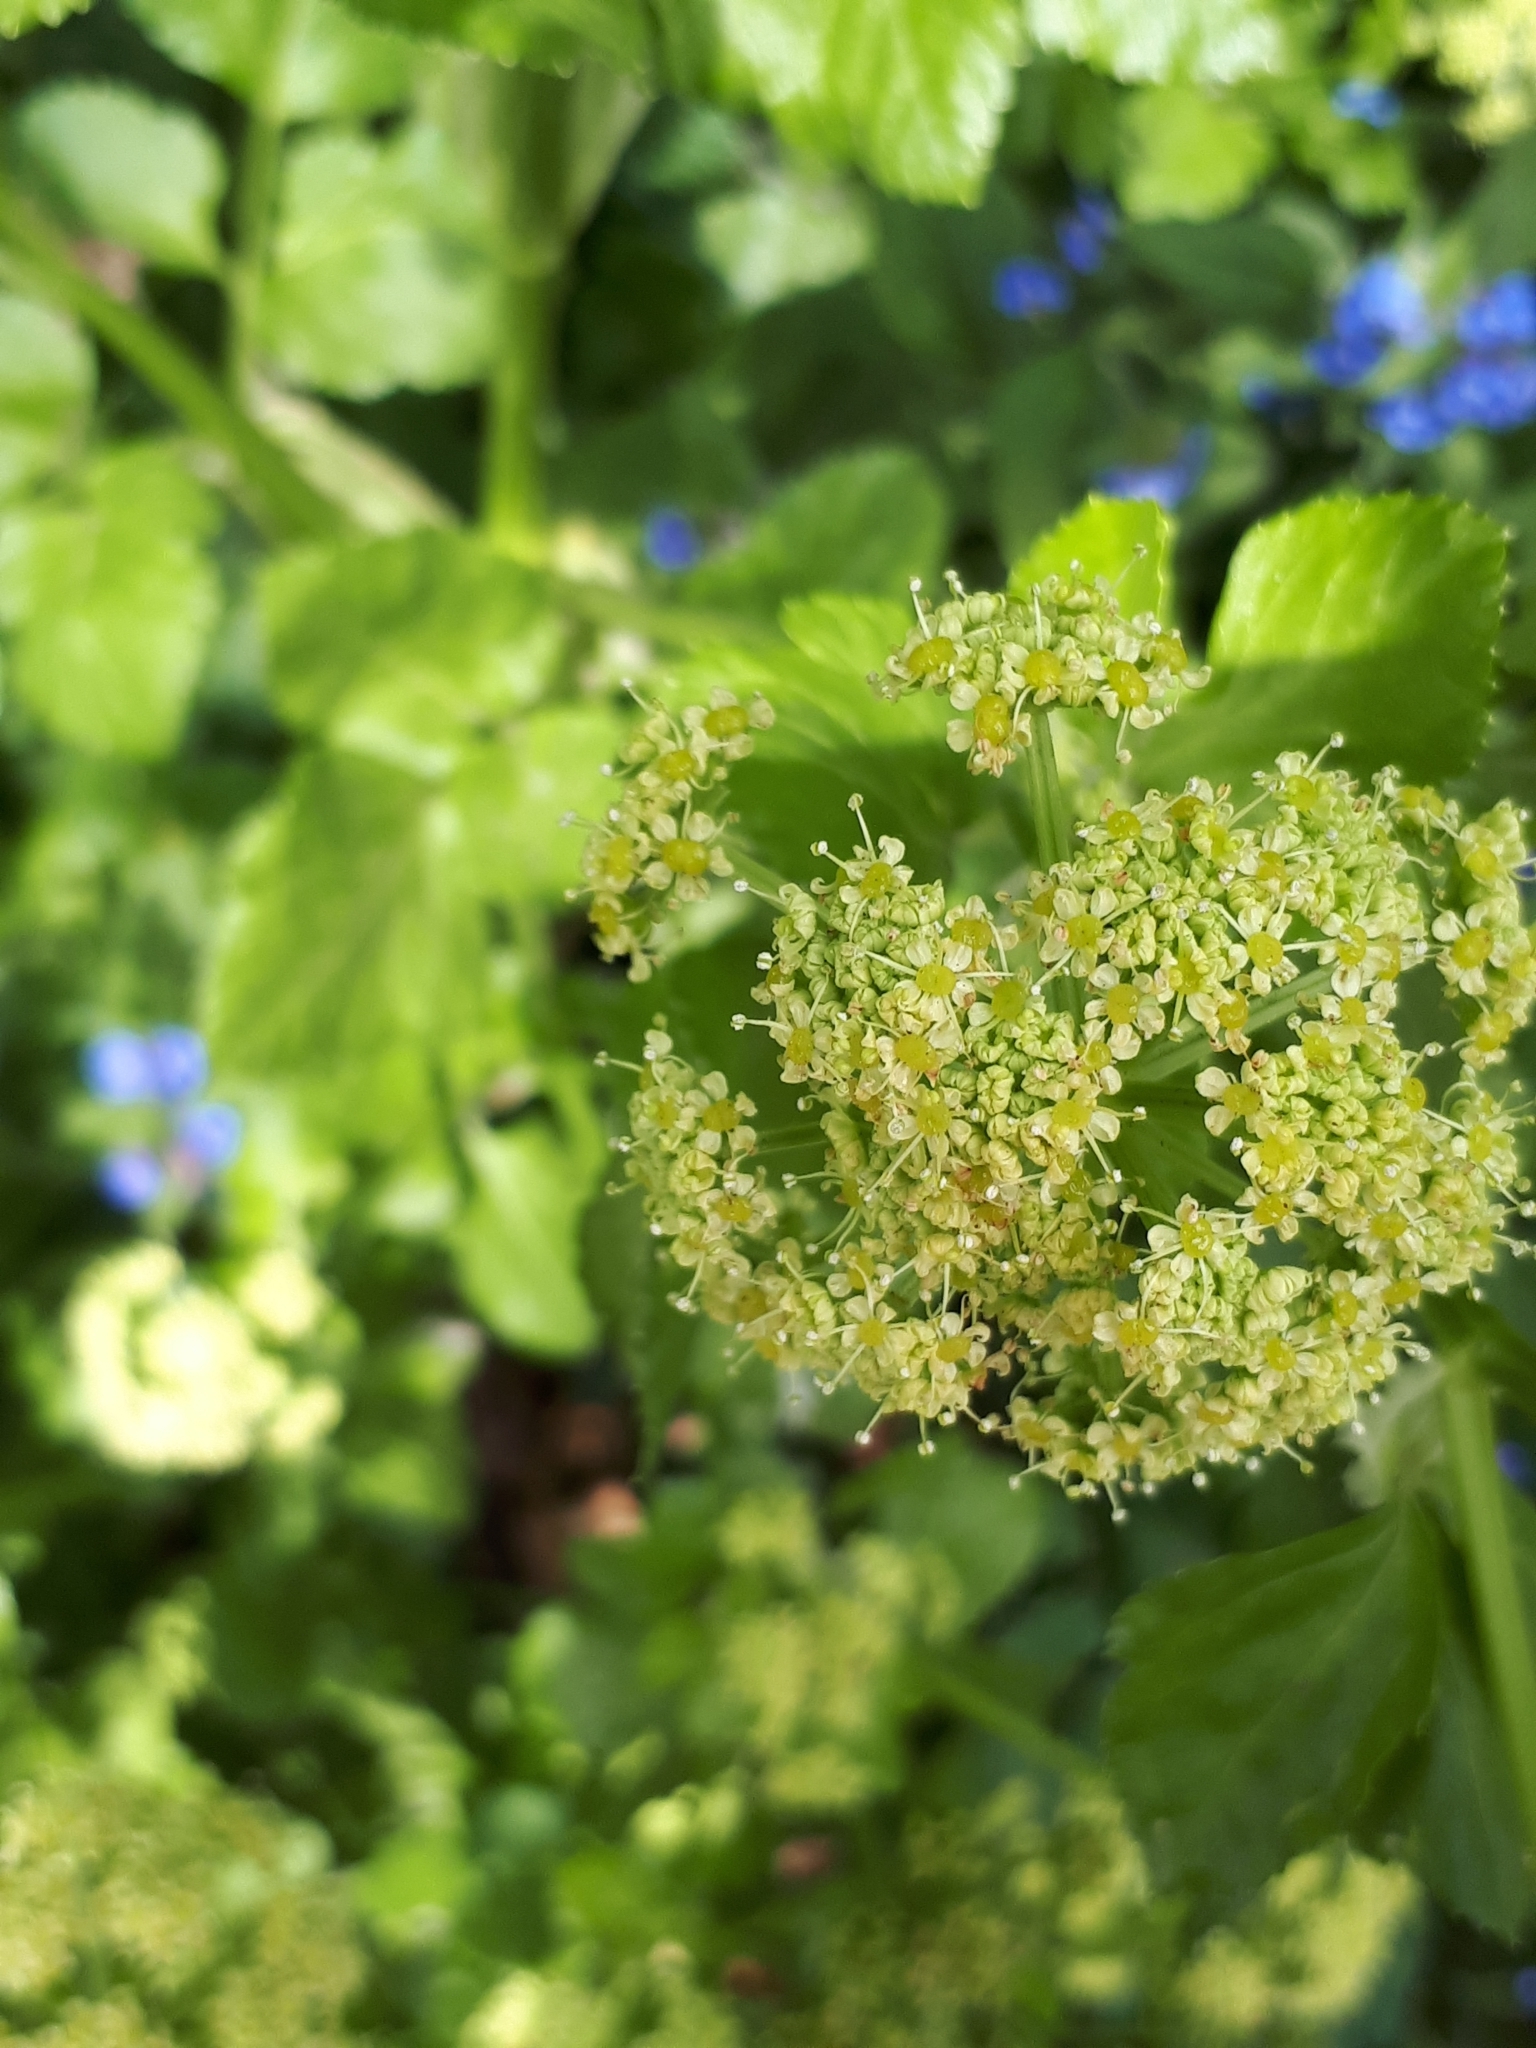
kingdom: Plantae
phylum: Tracheophyta
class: Magnoliopsida
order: Apiales
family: Apiaceae
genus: Smyrnium
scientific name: Smyrnium olusatrum
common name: Alexanders
